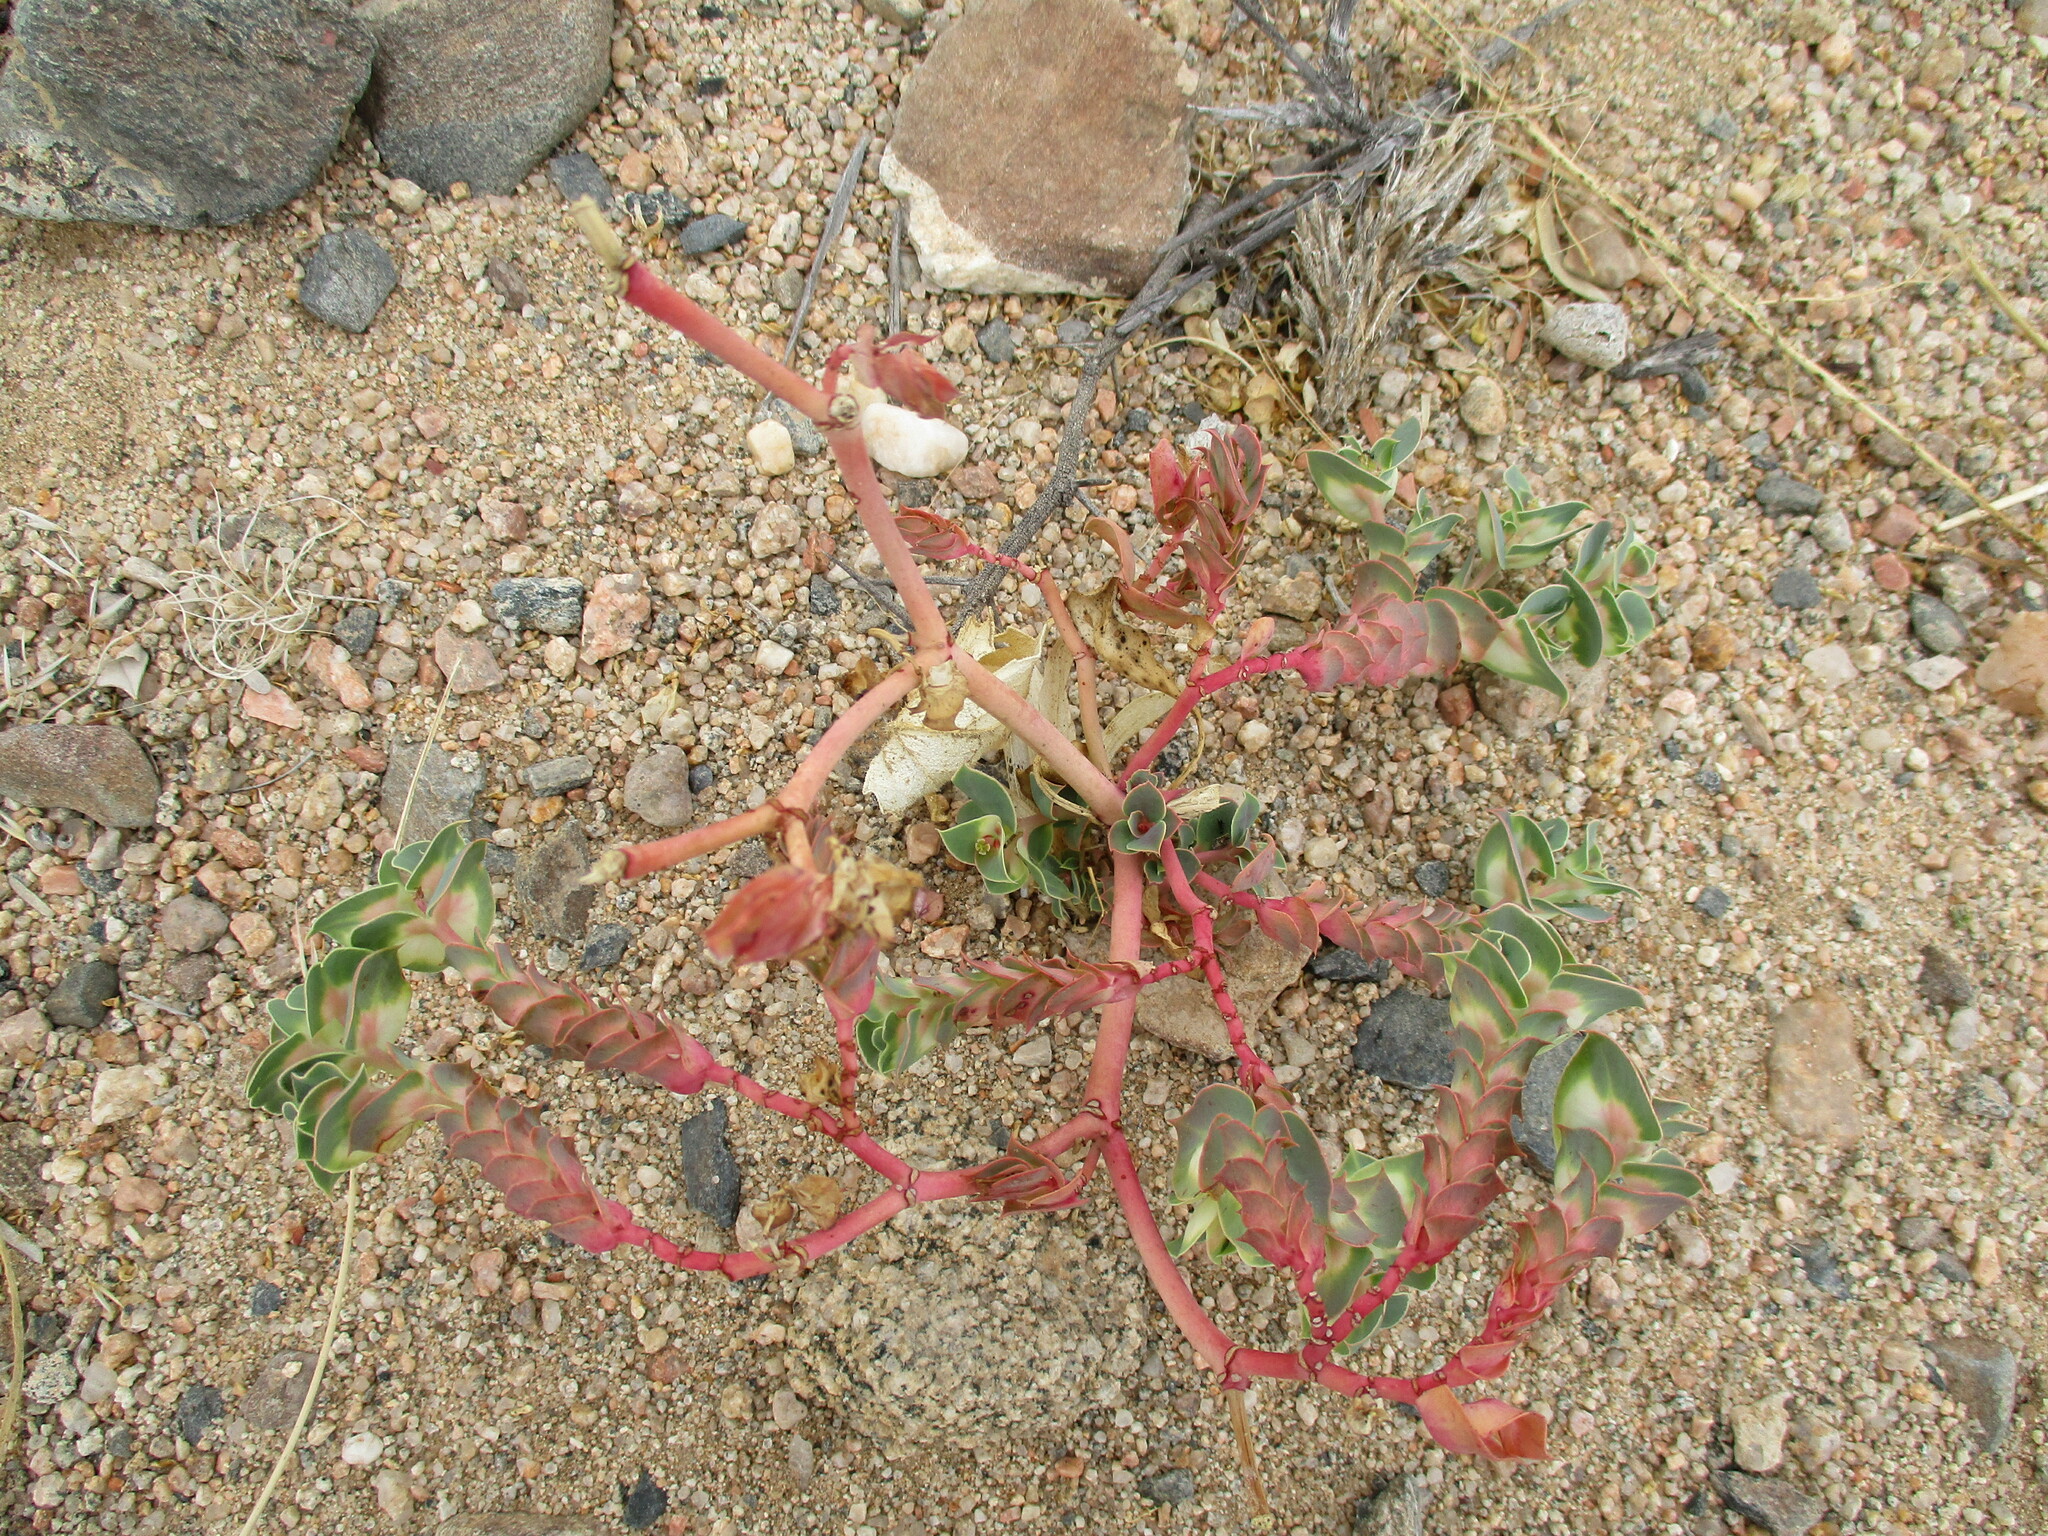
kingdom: Plantae
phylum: Tracheophyta
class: Magnoliopsida
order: Malpighiales
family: Euphorbiaceae
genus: Euphorbia
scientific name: Euphorbia phylloclada
